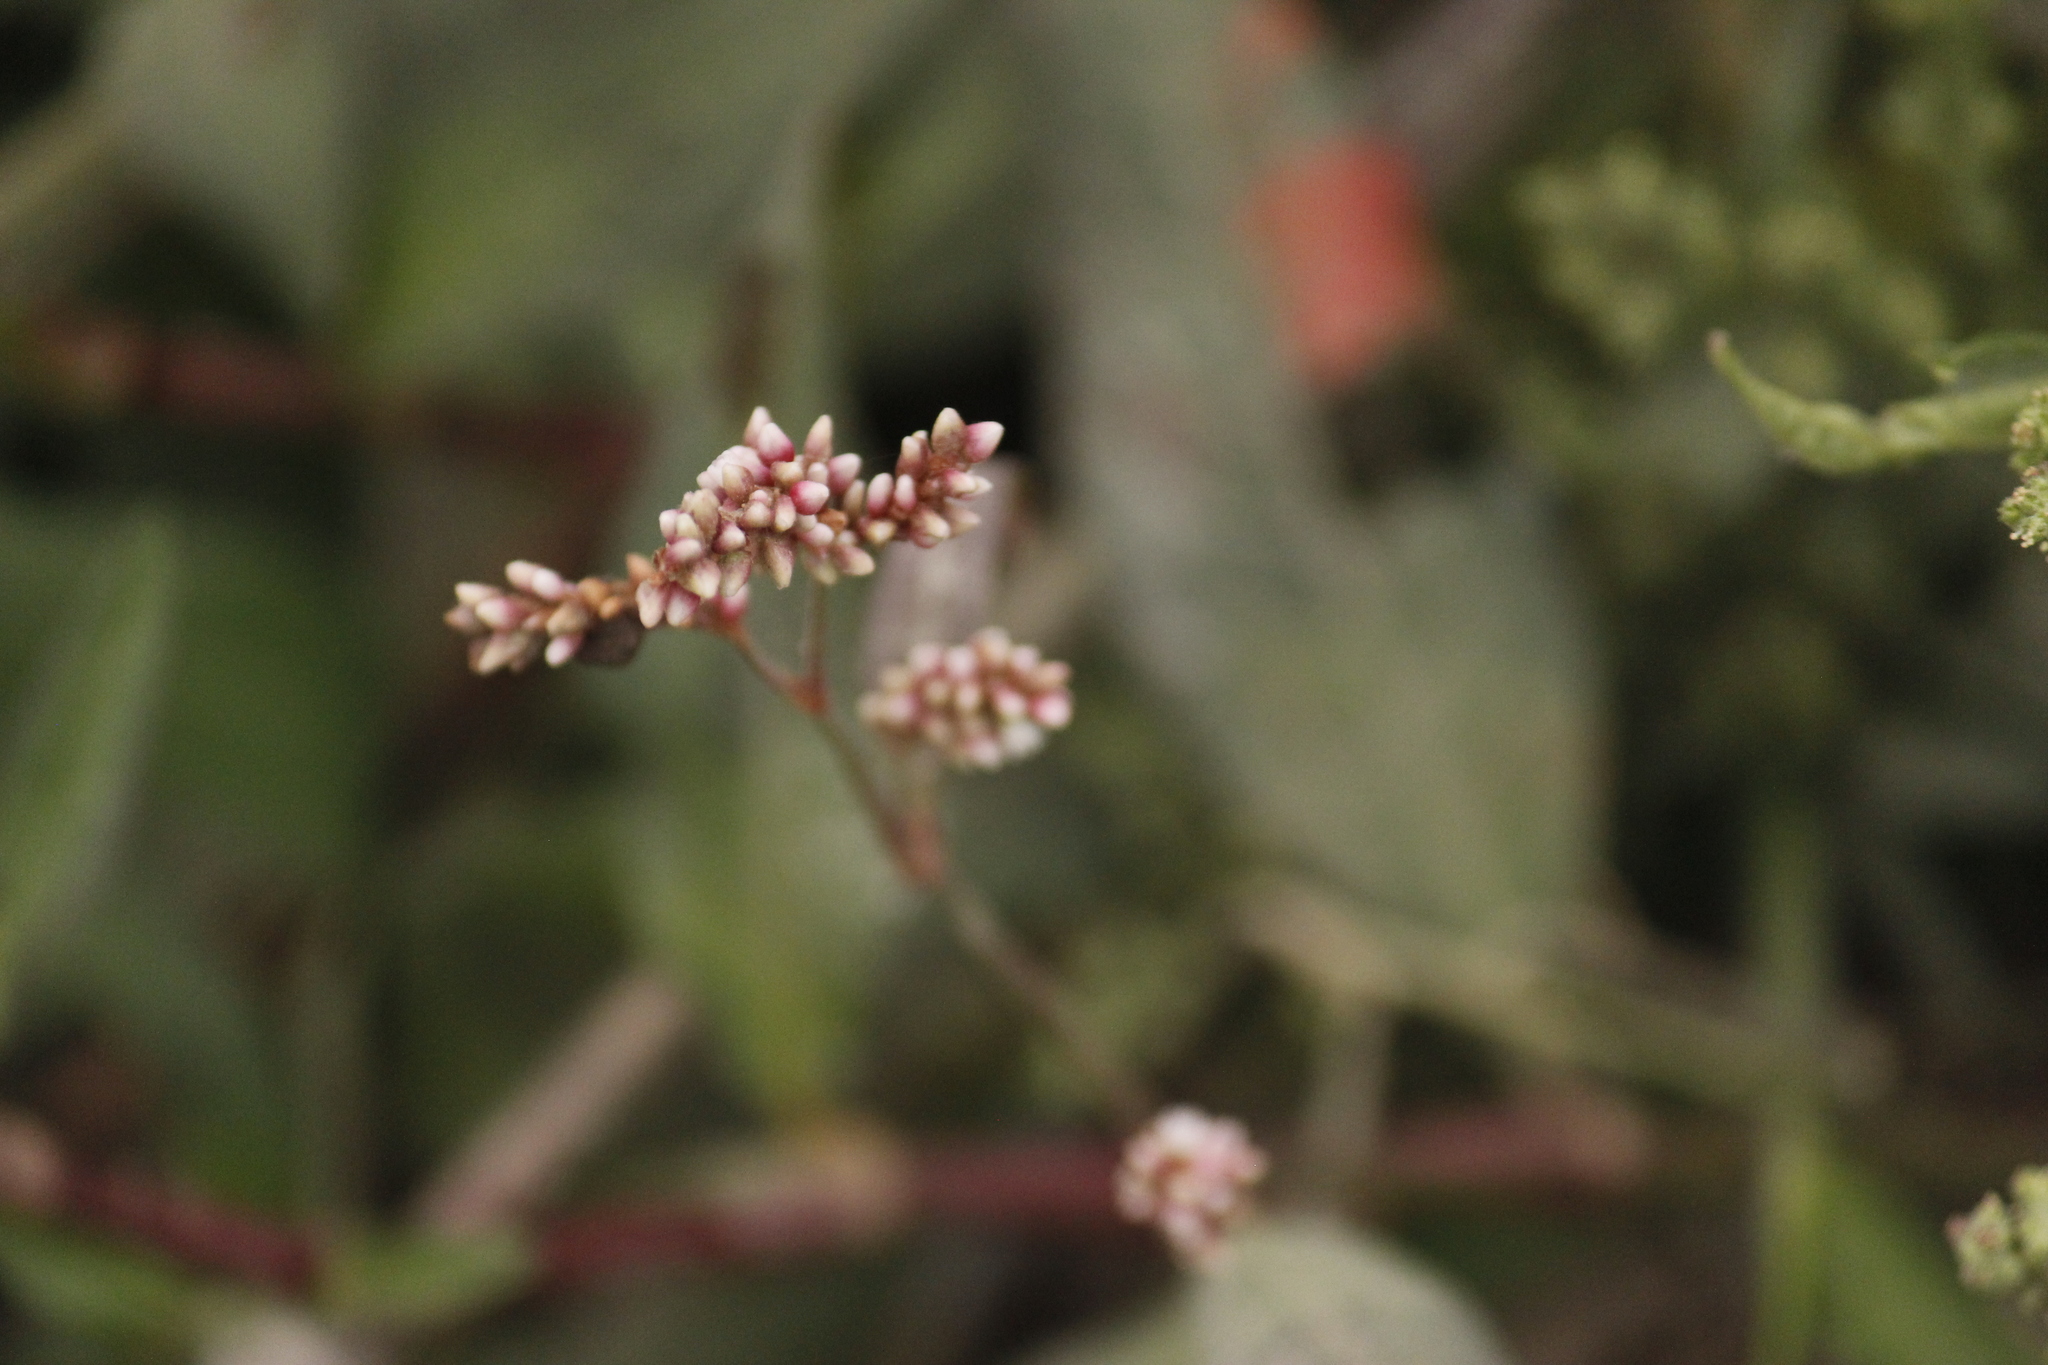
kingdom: Plantae
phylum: Tracheophyta
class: Magnoliopsida
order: Caryophyllales
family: Polygonaceae
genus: Persicaria
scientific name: Persicaria hydropiperoides
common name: Swamp smartweed
